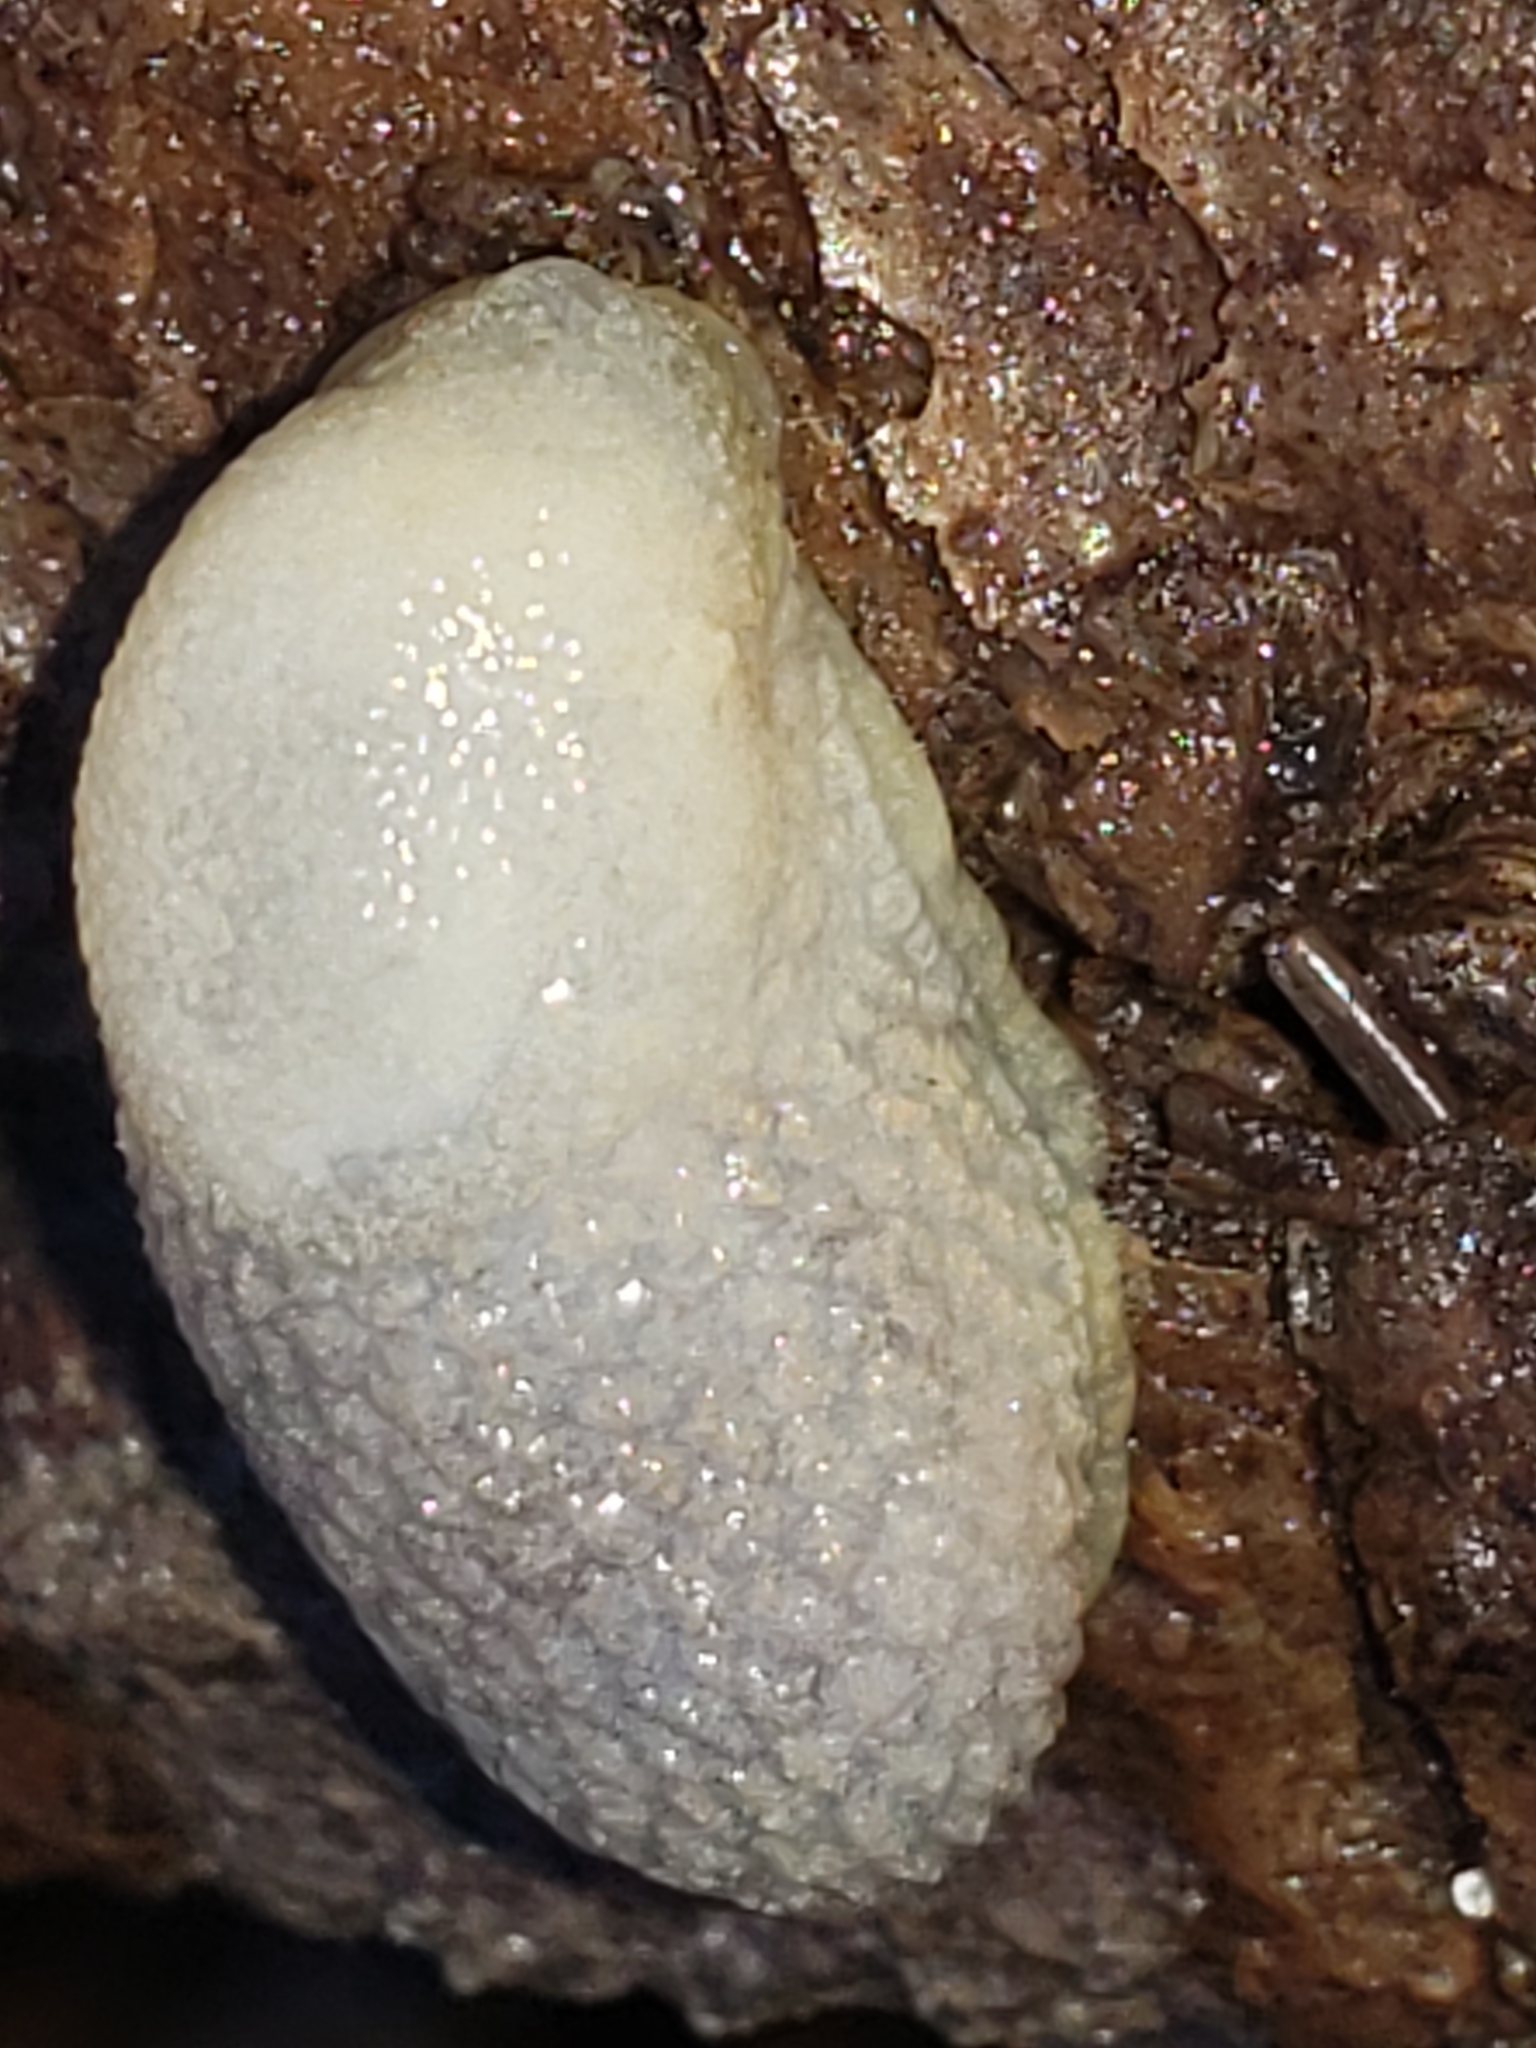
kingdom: Animalia
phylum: Mollusca
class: Gastropoda
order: Stylommatophora
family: Arionidae
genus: Arion
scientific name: Arion intermedius
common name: Hedgehog slug
